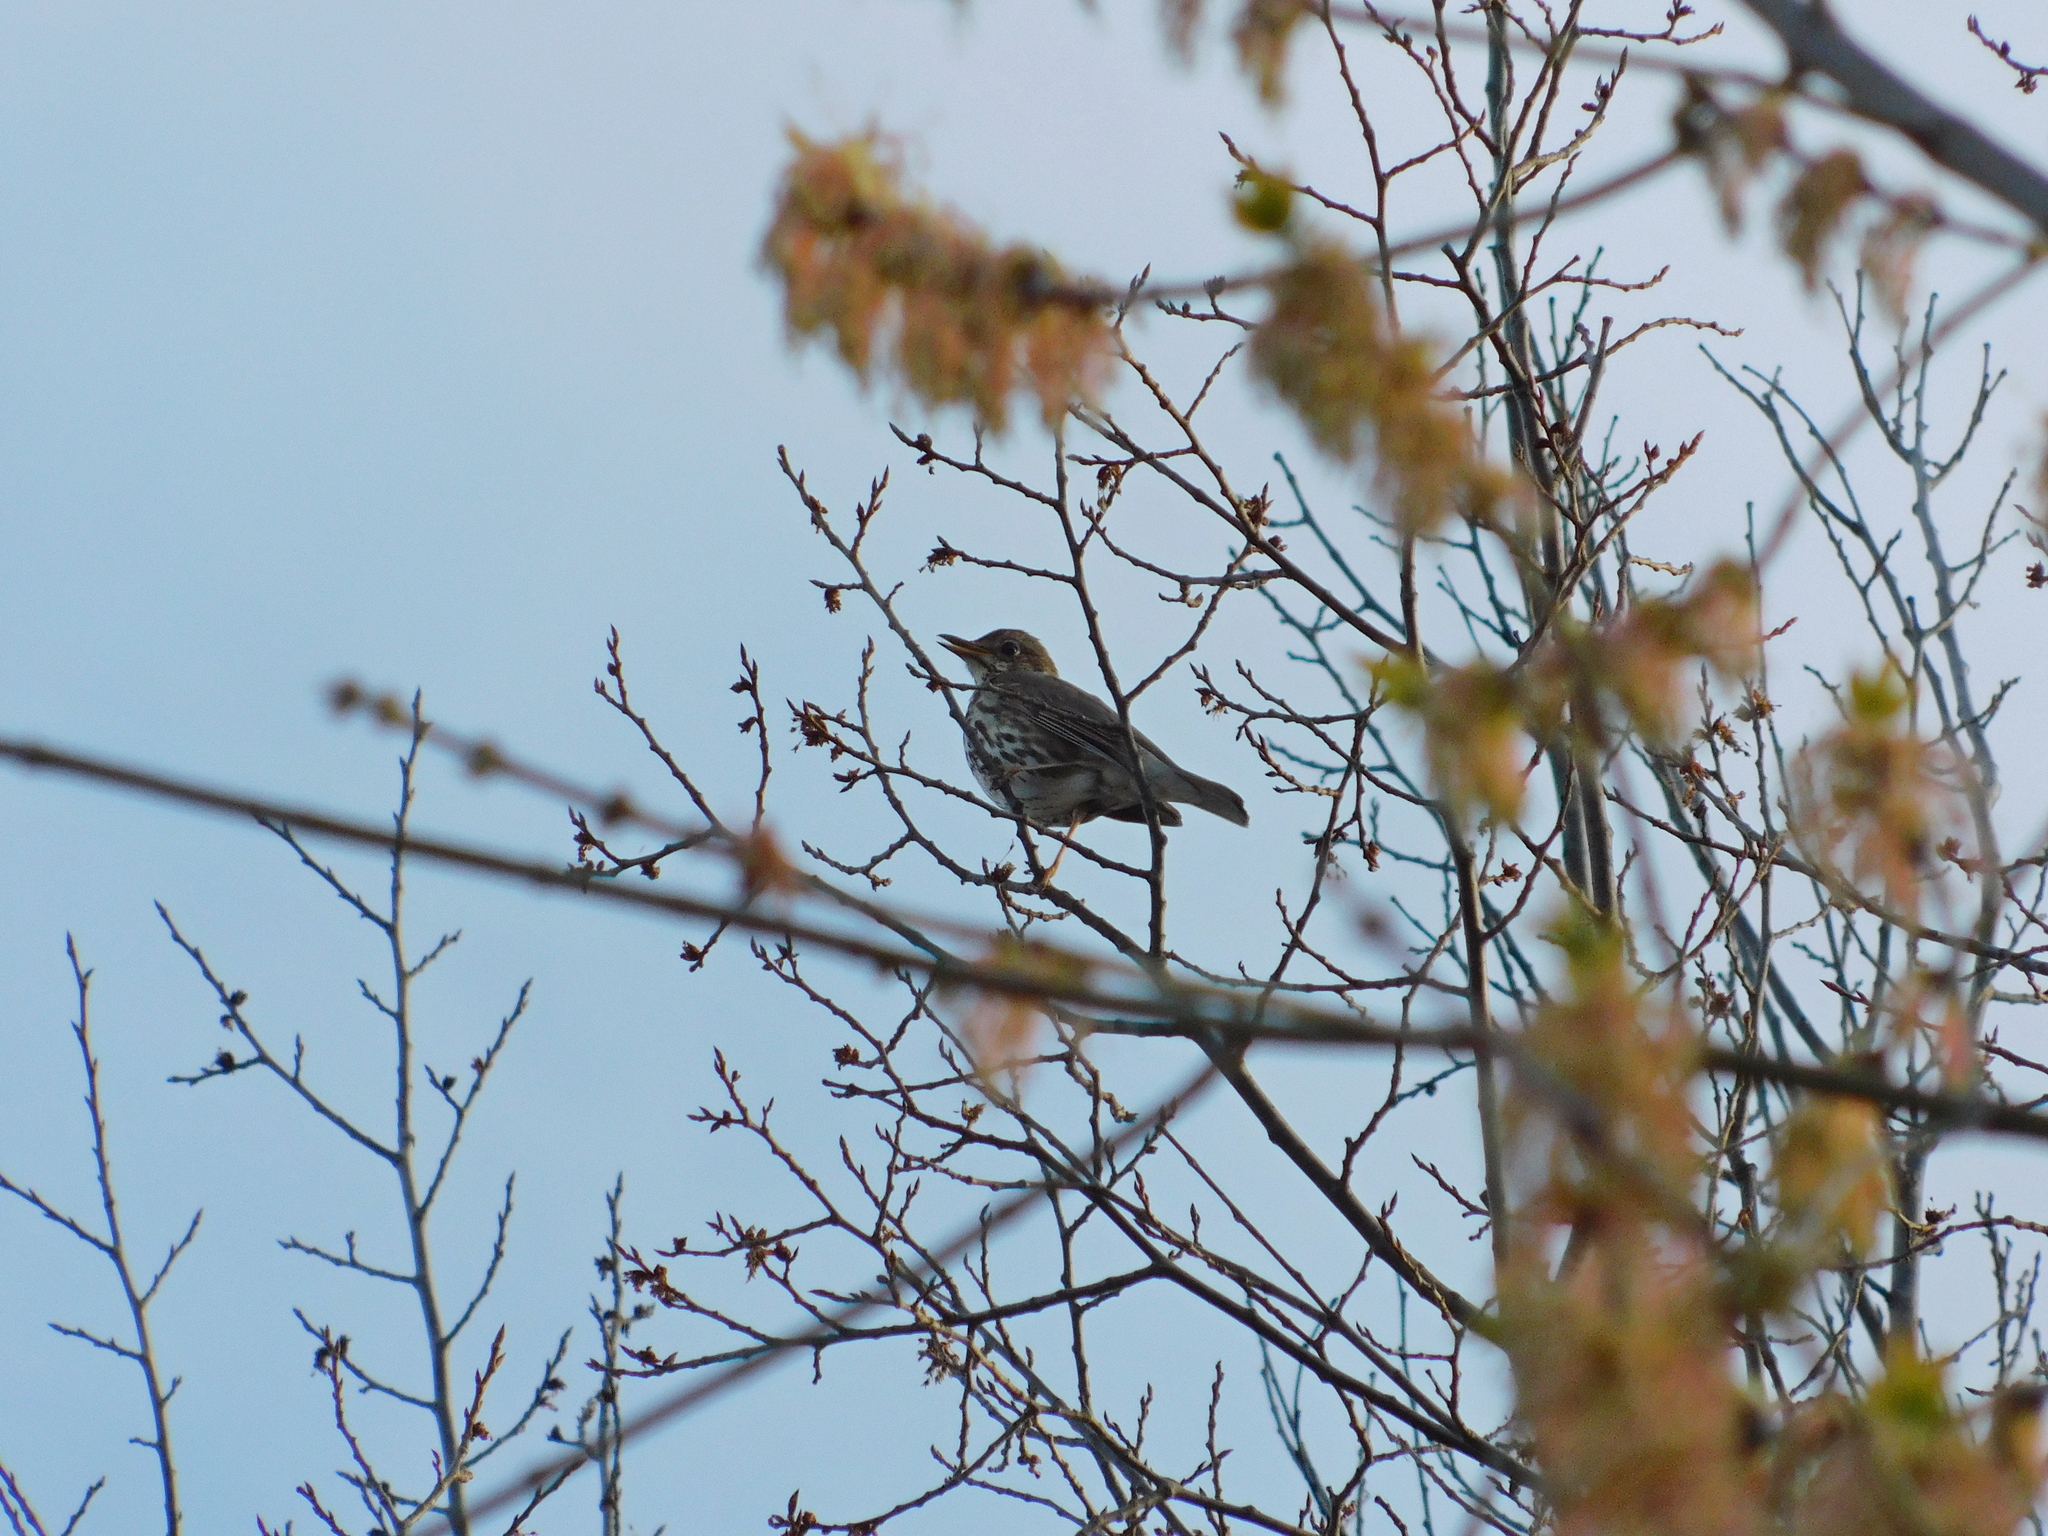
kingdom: Animalia
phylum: Chordata
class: Aves
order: Passeriformes
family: Turdidae
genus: Turdus
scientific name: Turdus philomelos
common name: Song thrush
